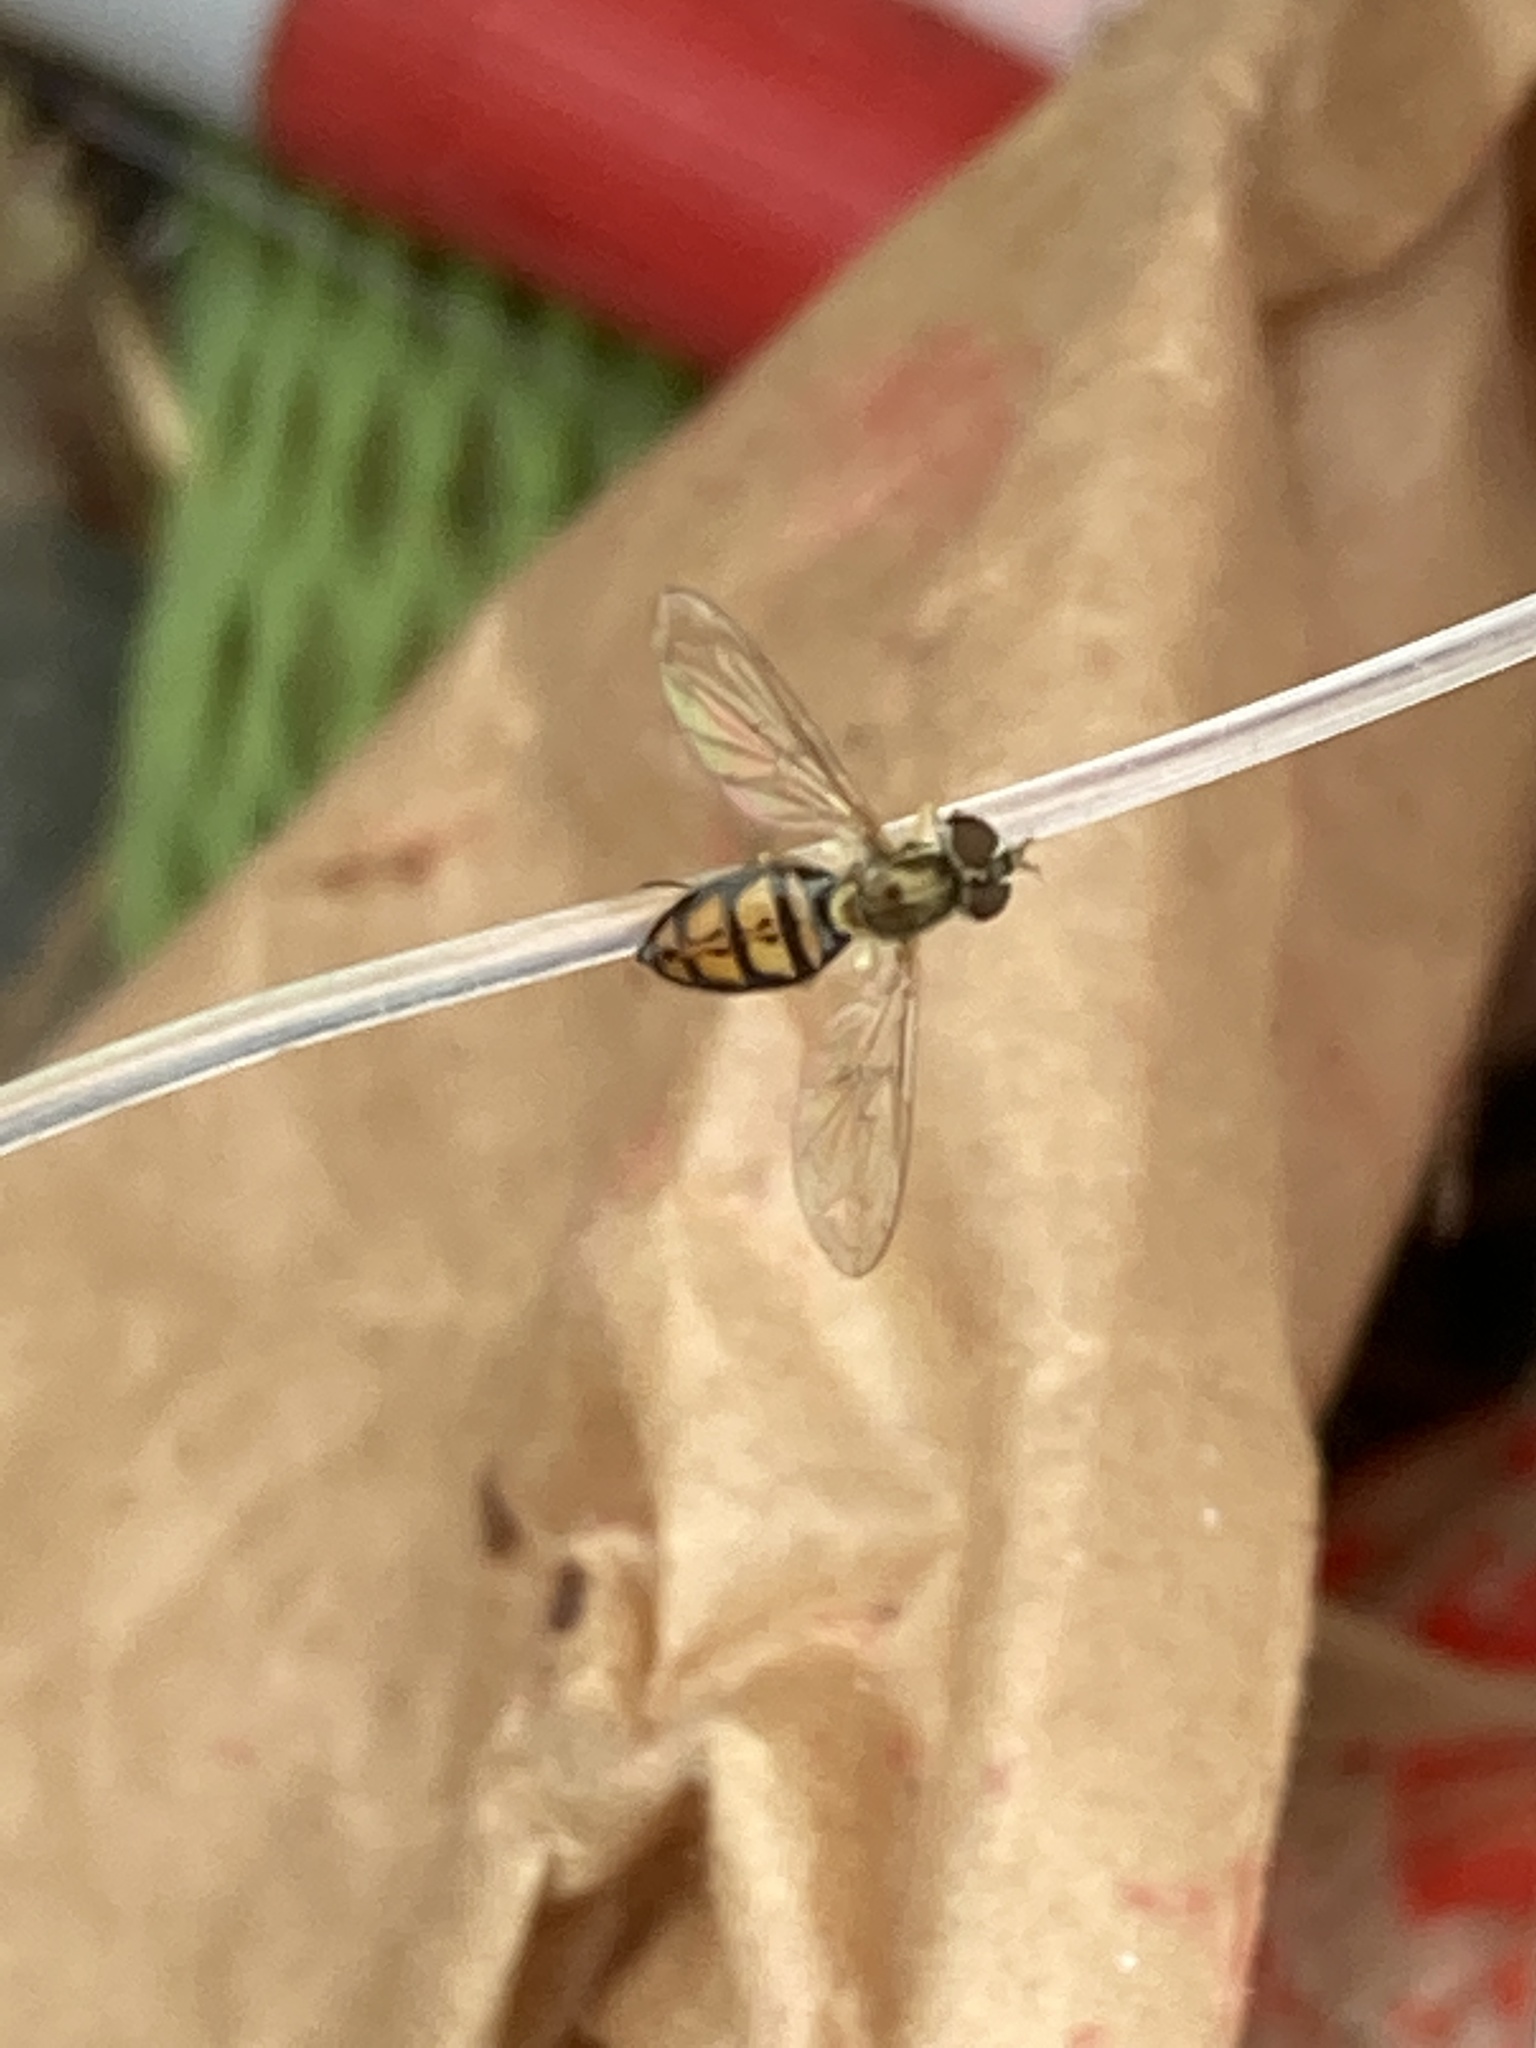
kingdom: Animalia
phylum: Arthropoda
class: Insecta
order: Diptera
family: Syrphidae
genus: Toxomerus
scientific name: Toxomerus marginatus
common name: Syrphid fly
